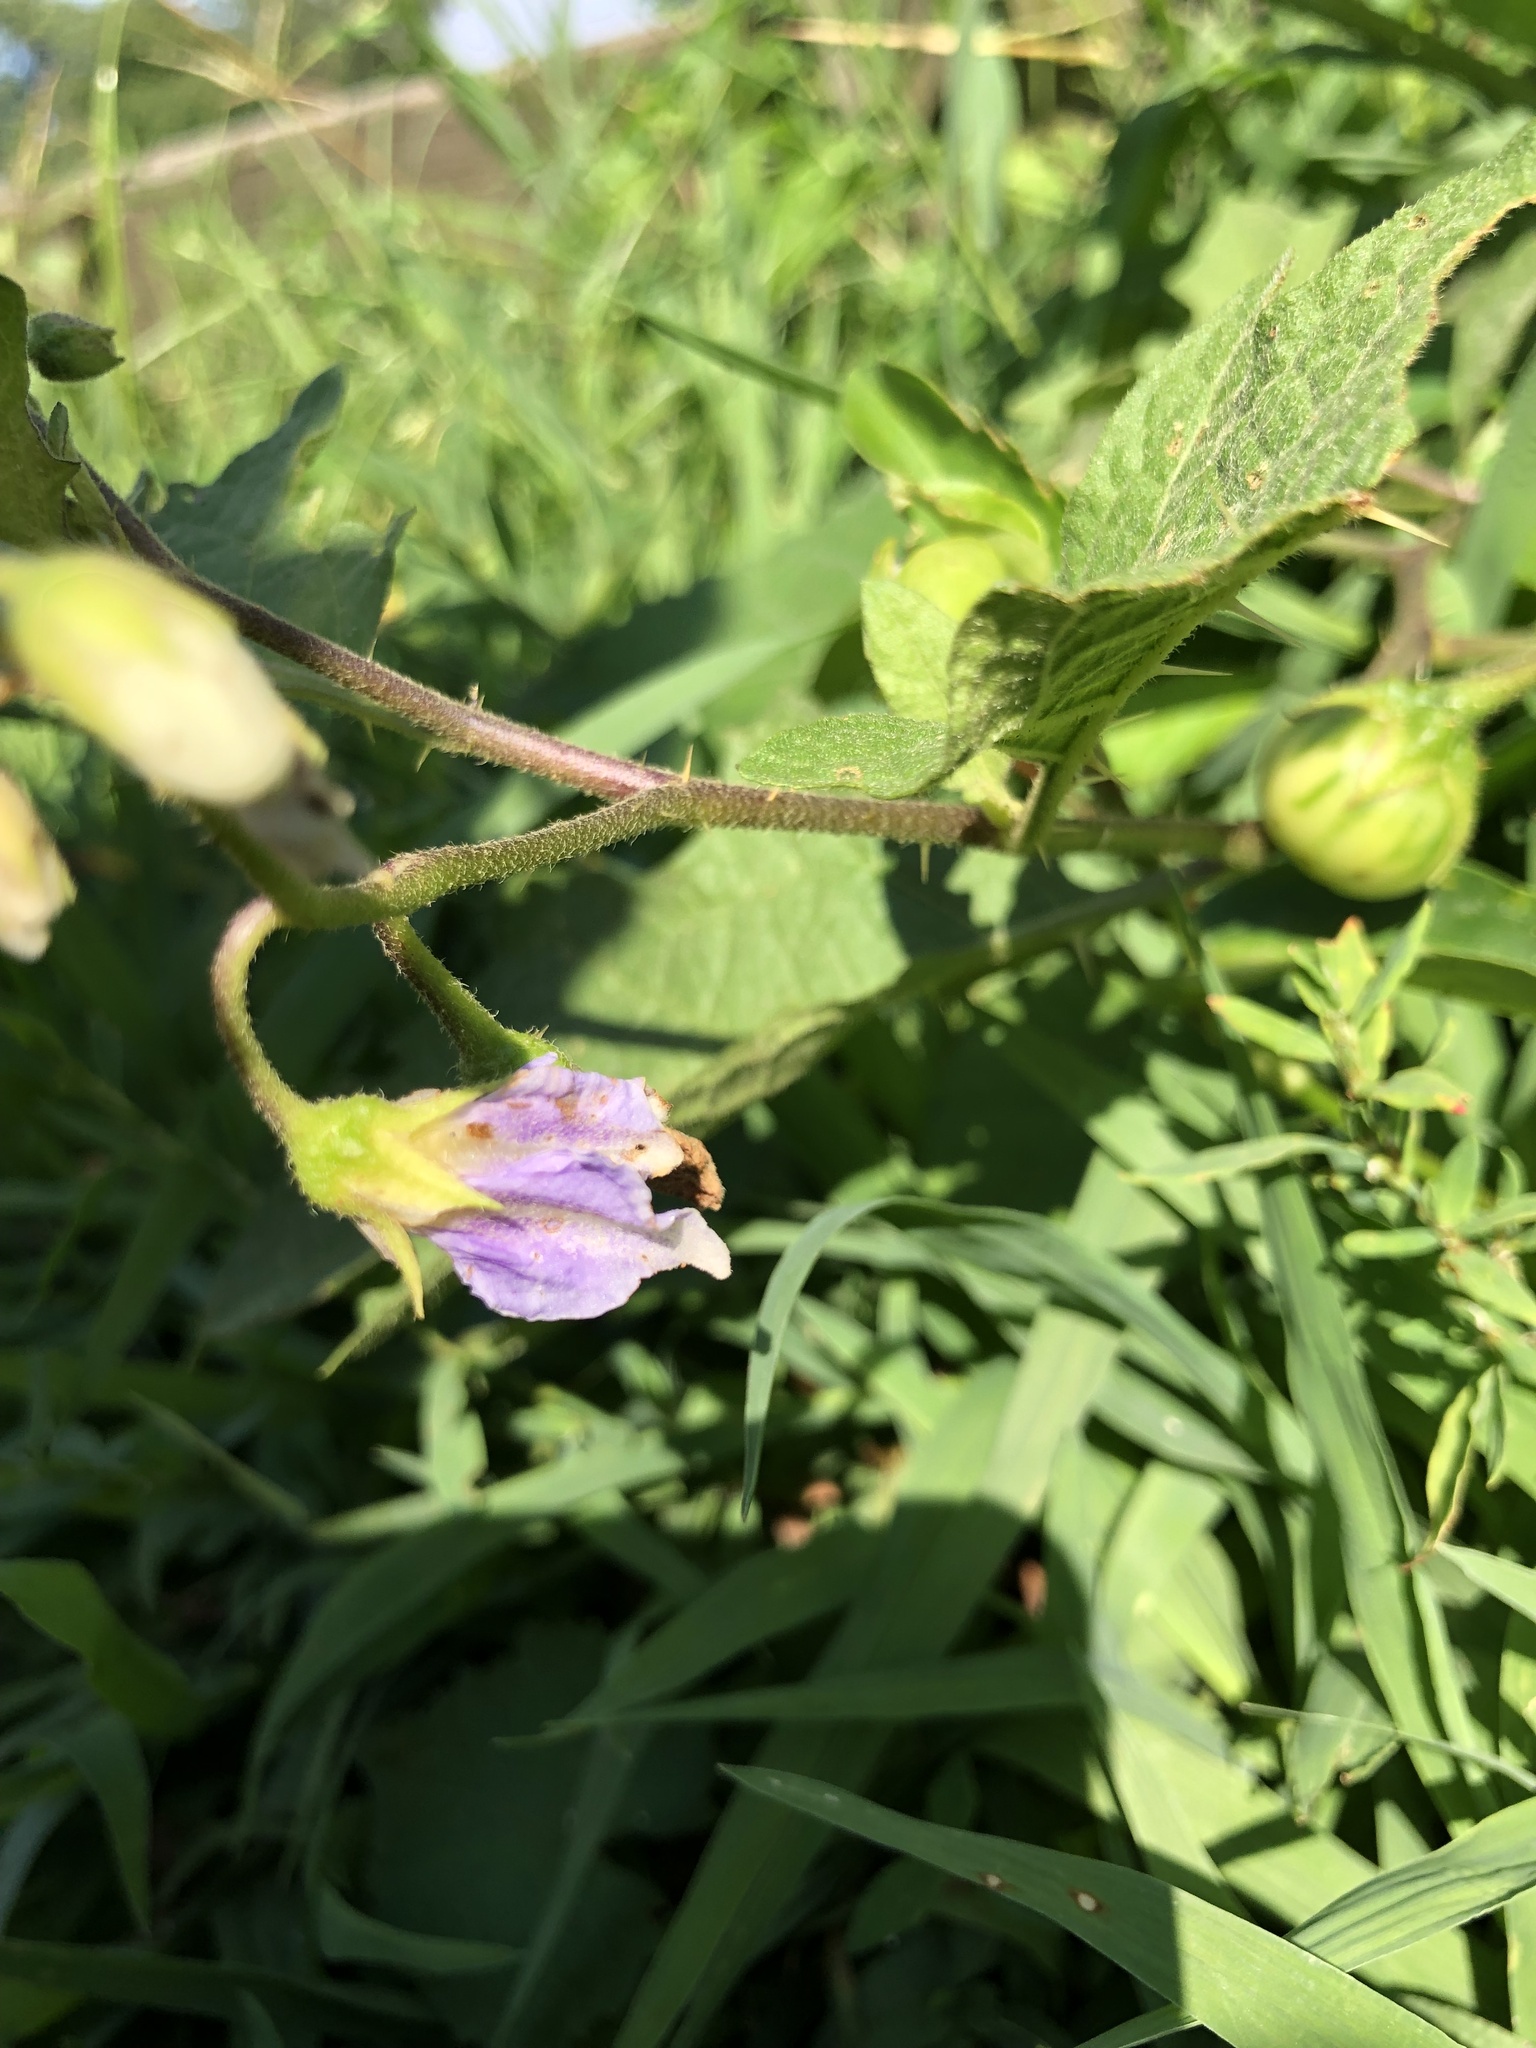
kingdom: Plantae
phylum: Tracheophyta
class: Magnoliopsida
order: Solanales
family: Solanaceae
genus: Solanum
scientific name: Solanum carolinense
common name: Horse-nettle
